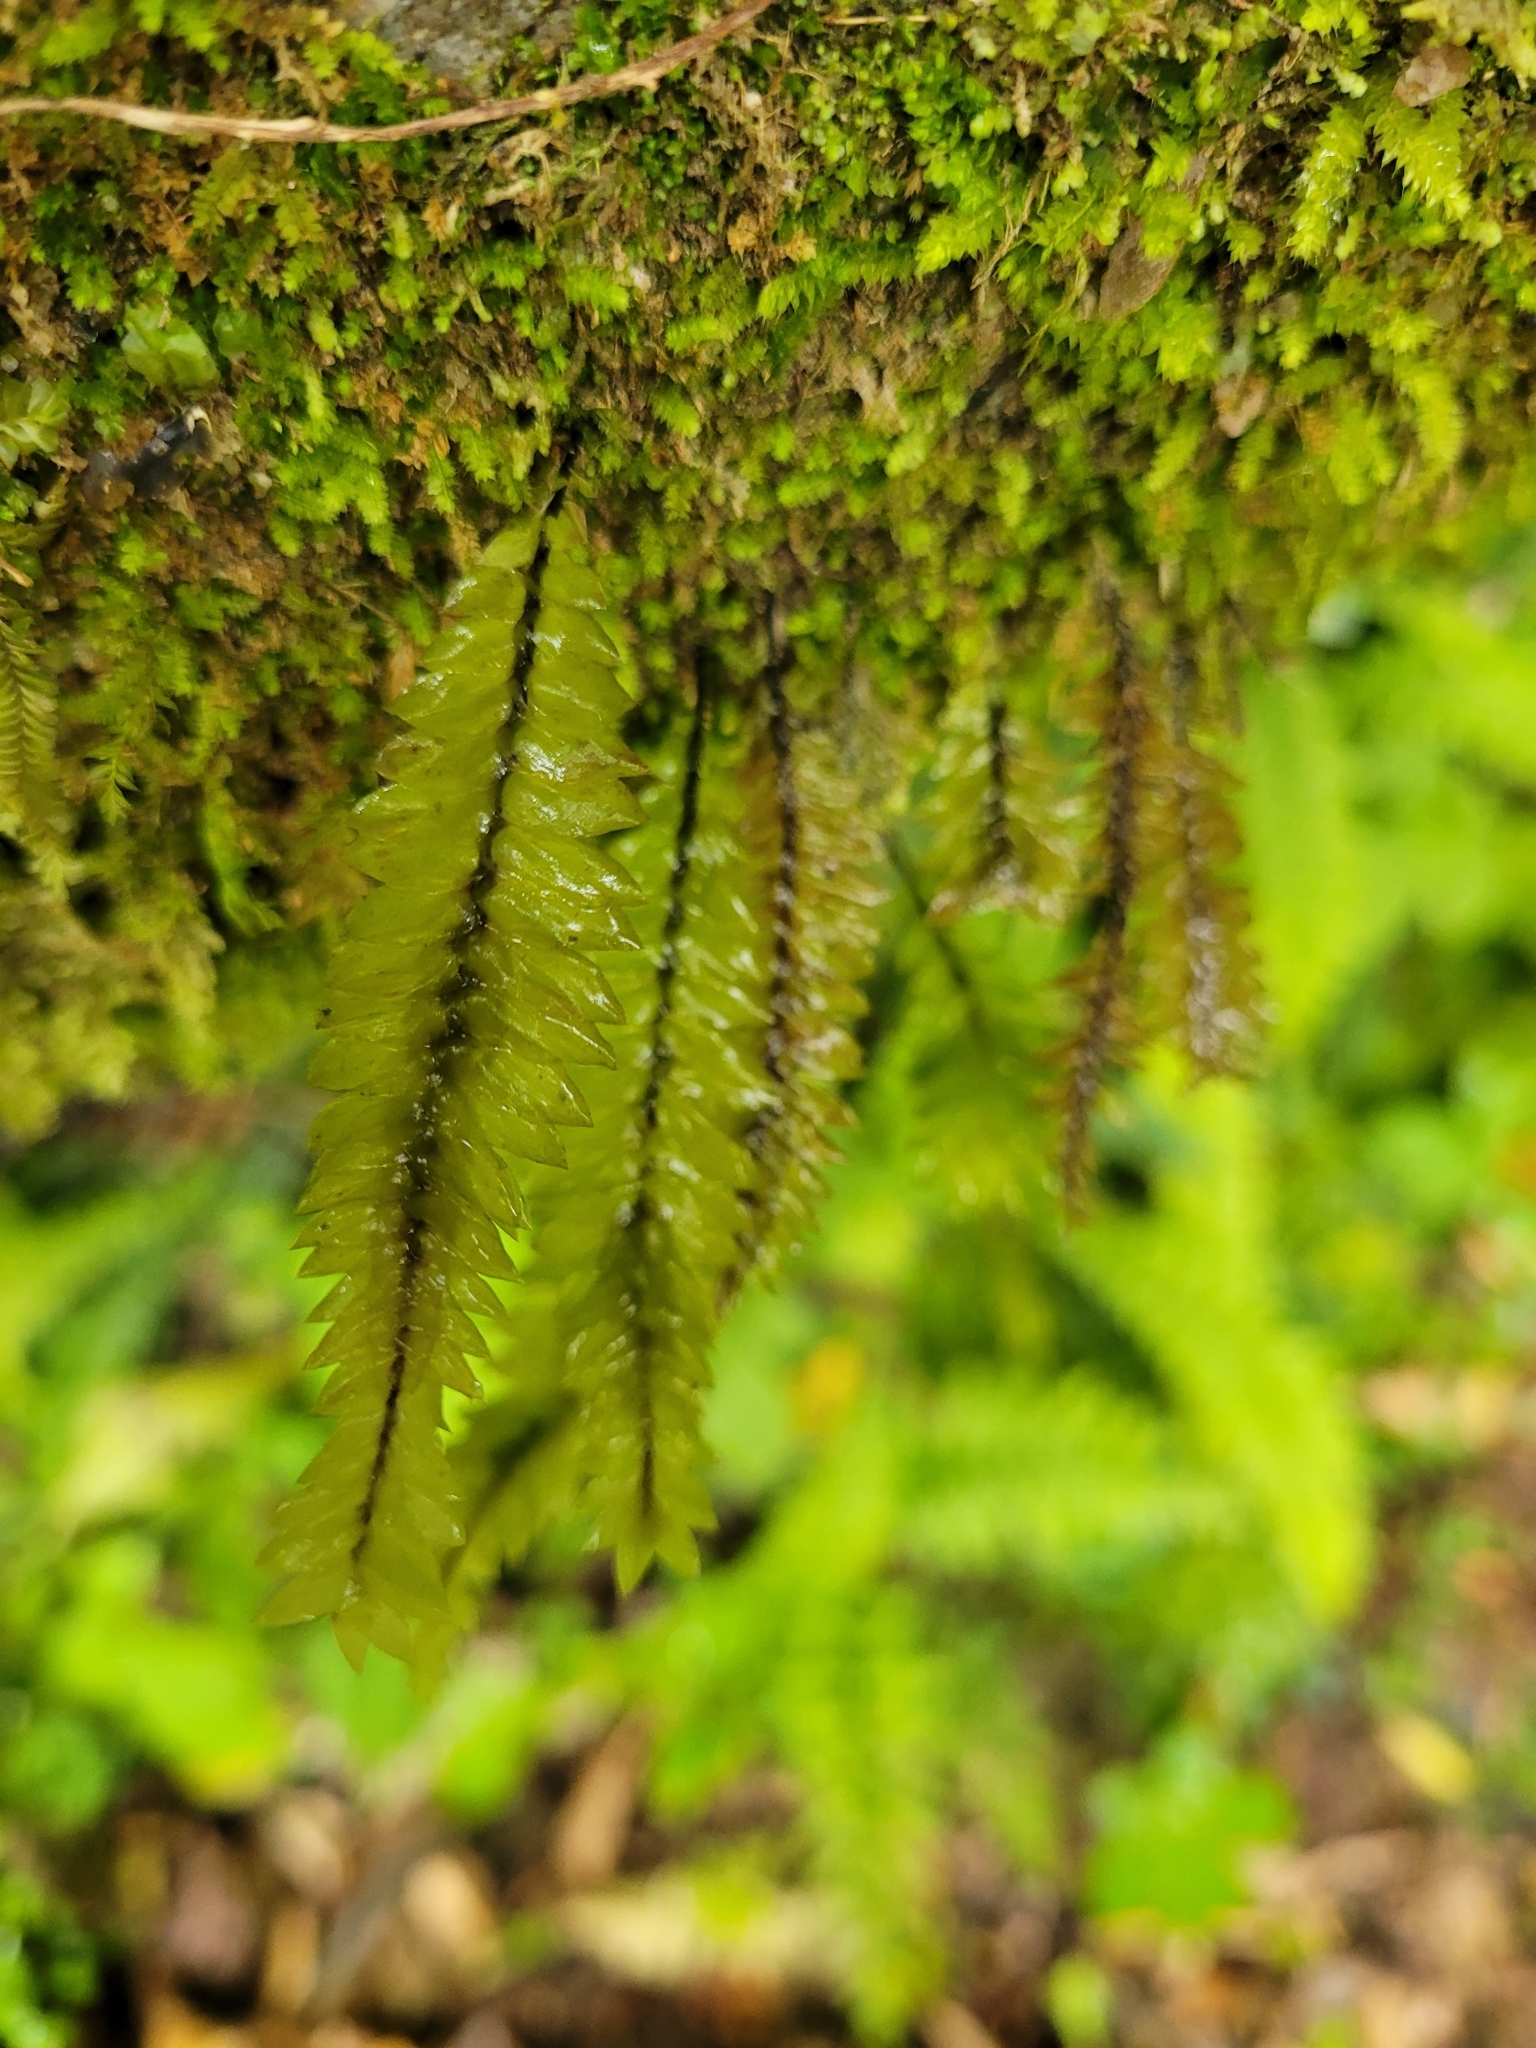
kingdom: Plantae
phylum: Bryophyta
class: Bryopsida
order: Hypopterygiales
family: Hypopterygiaceae
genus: Cyathophorum
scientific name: Cyathophorum bulbosum
